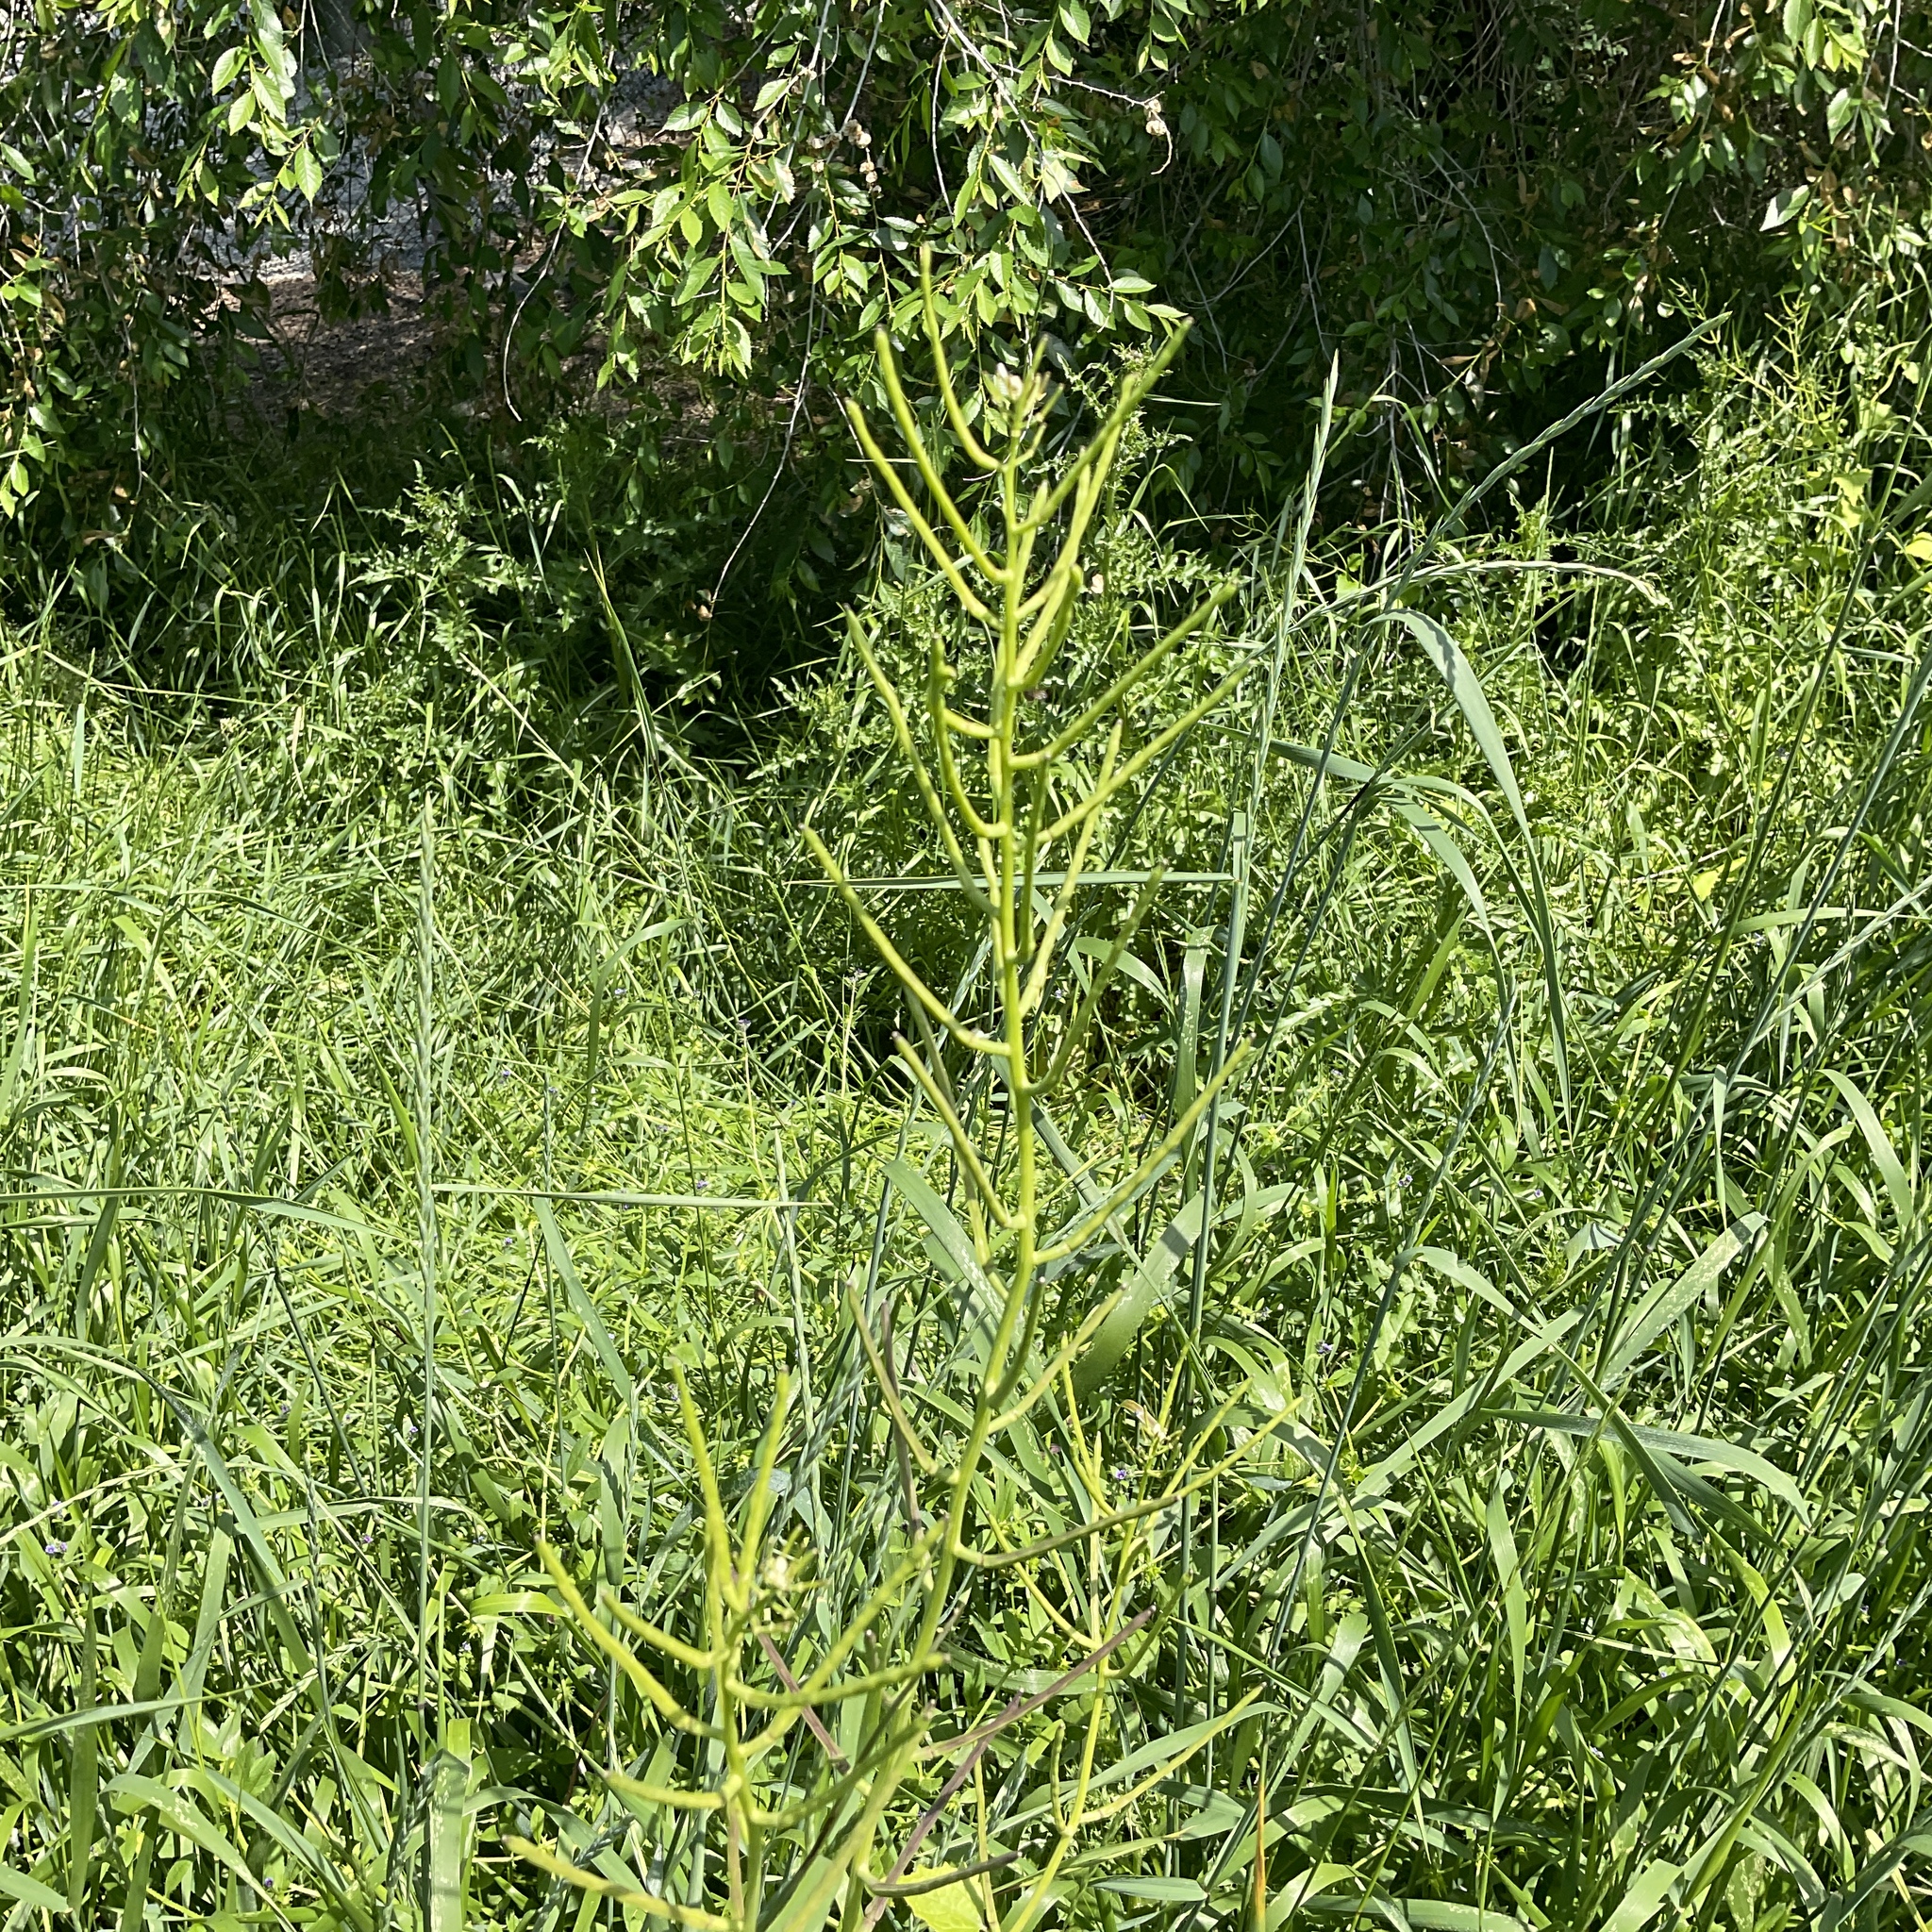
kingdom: Plantae
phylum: Tracheophyta
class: Magnoliopsida
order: Brassicales
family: Brassicaceae
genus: Alliaria
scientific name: Alliaria petiolata
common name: Garlic mustard
